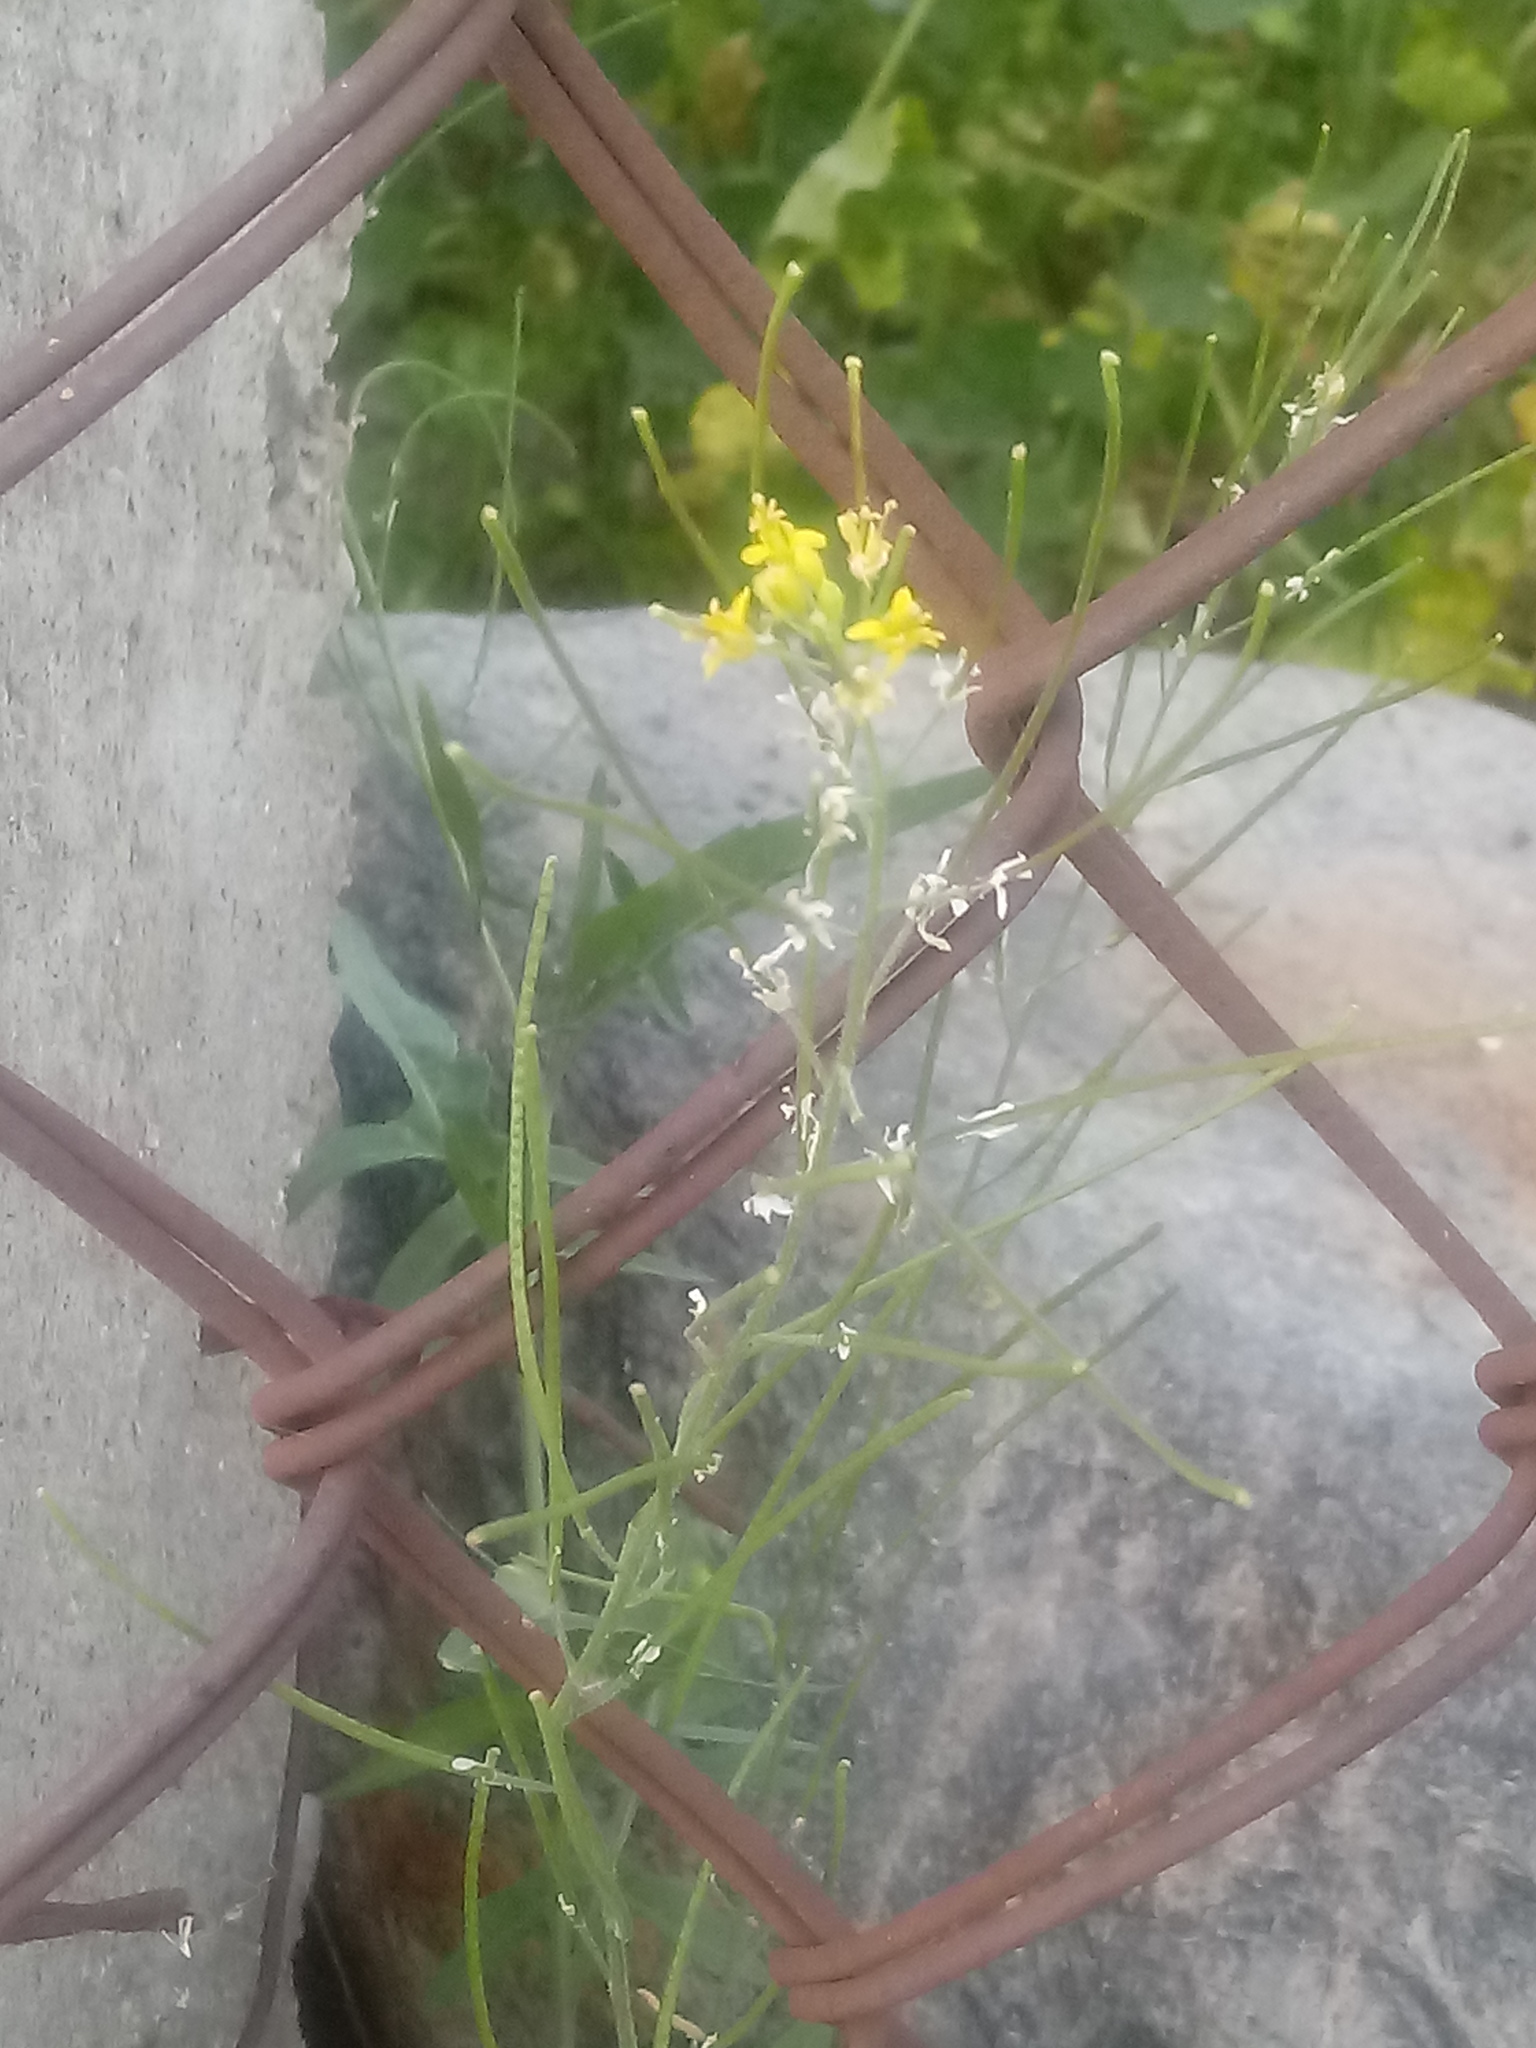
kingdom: Plantae
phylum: Tracheophyta
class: Magnoliopsida
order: Brassicales
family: Brassicaceae
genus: Sisymbrium
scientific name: Sisymbrium irio
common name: London rocket
